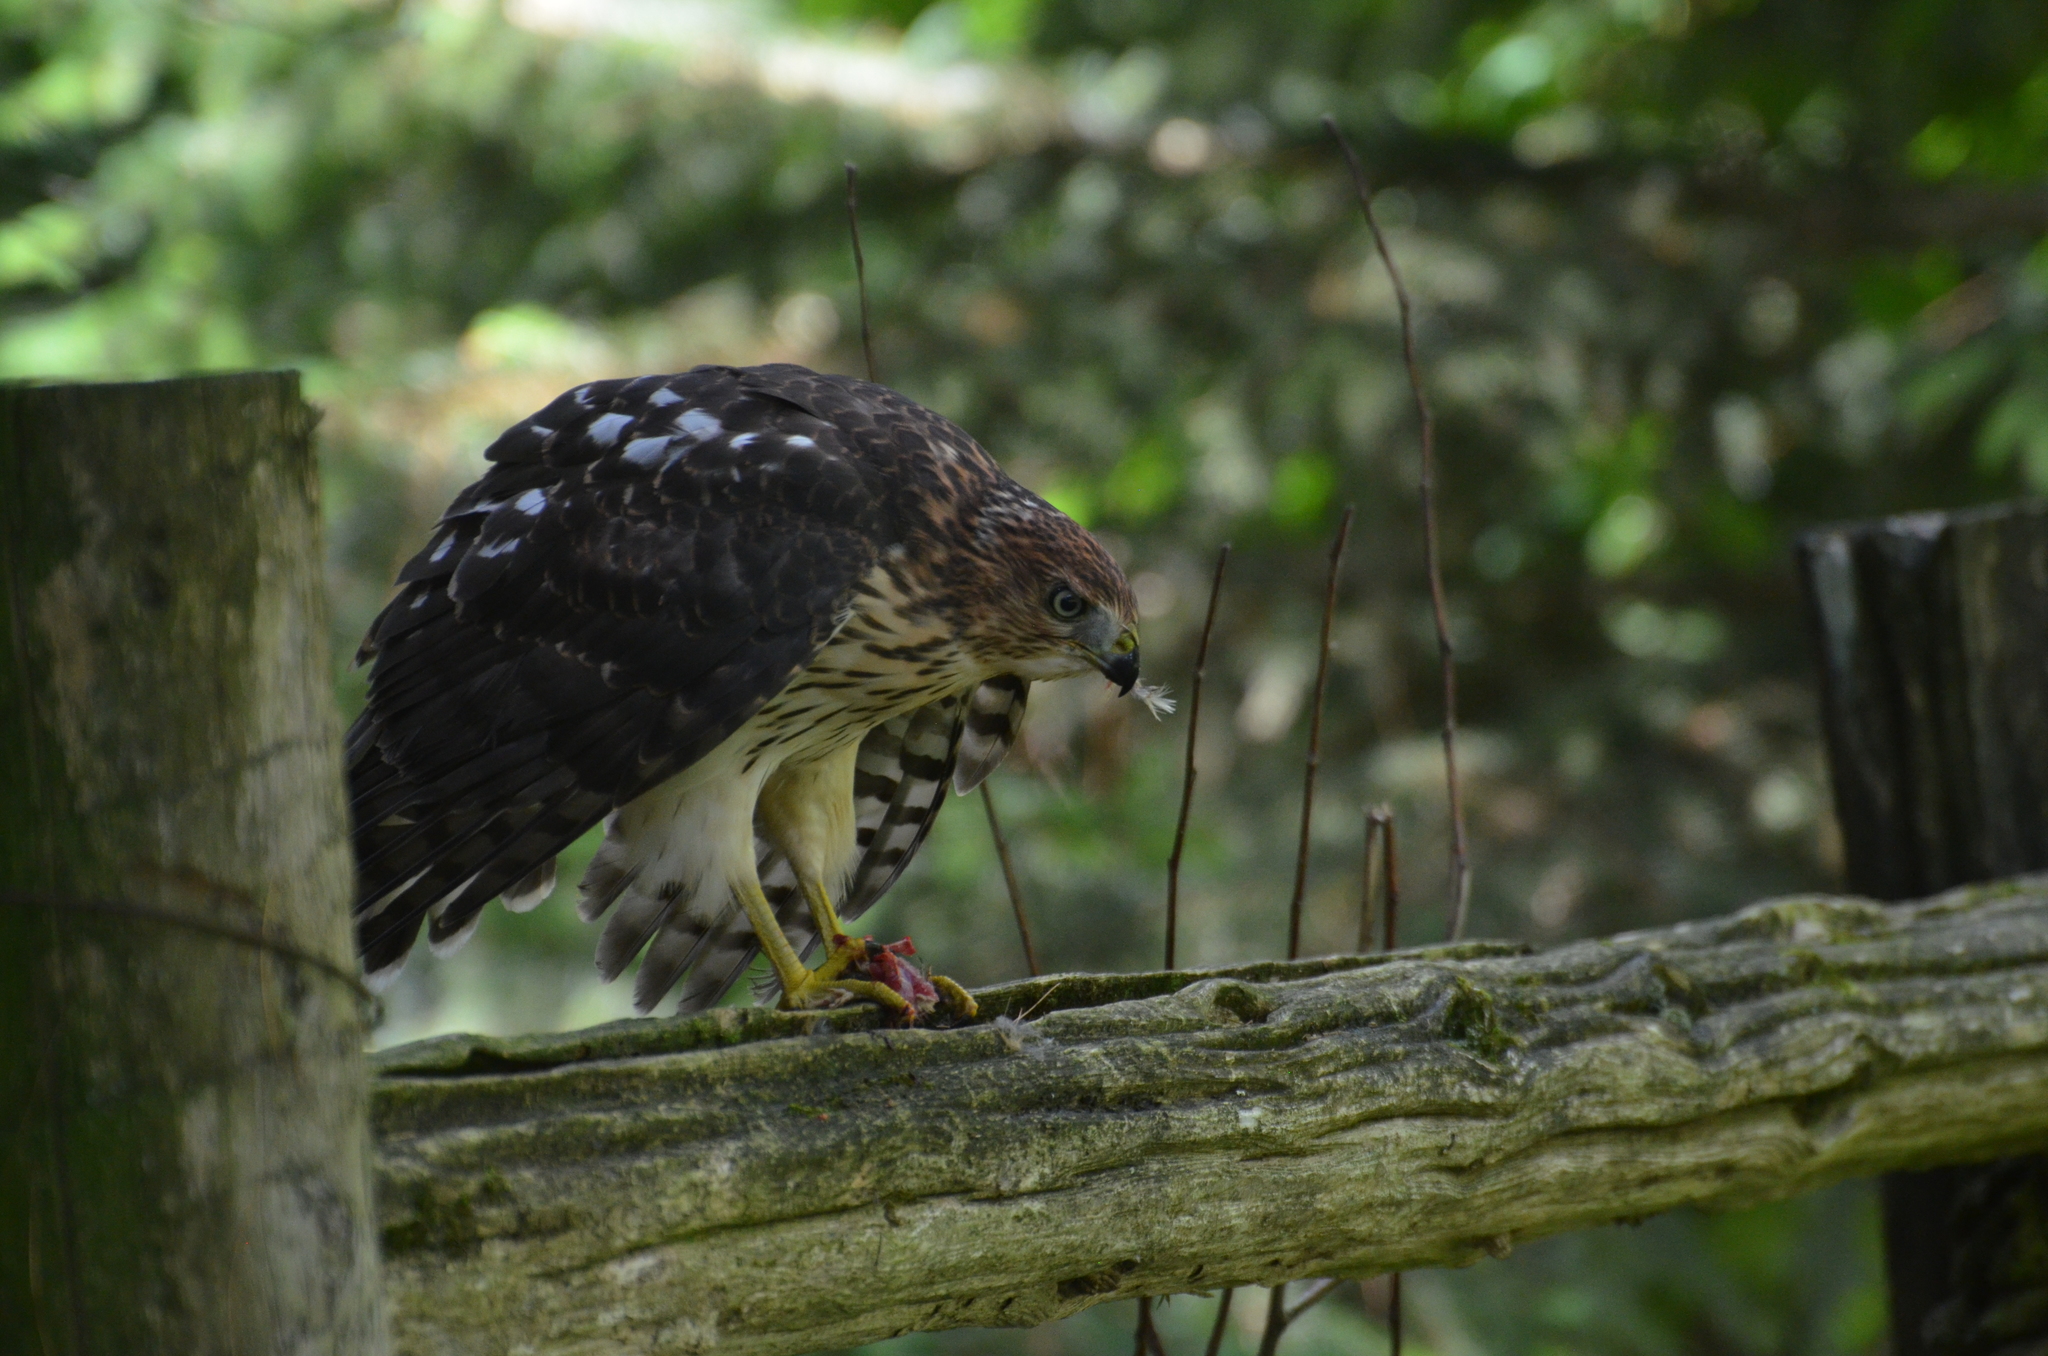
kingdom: Animalia
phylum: Chordata
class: Aves
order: Accipitriformes
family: Accipitridae
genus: Accipiter
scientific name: Accipiter cooperii
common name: Cooper's hawk
